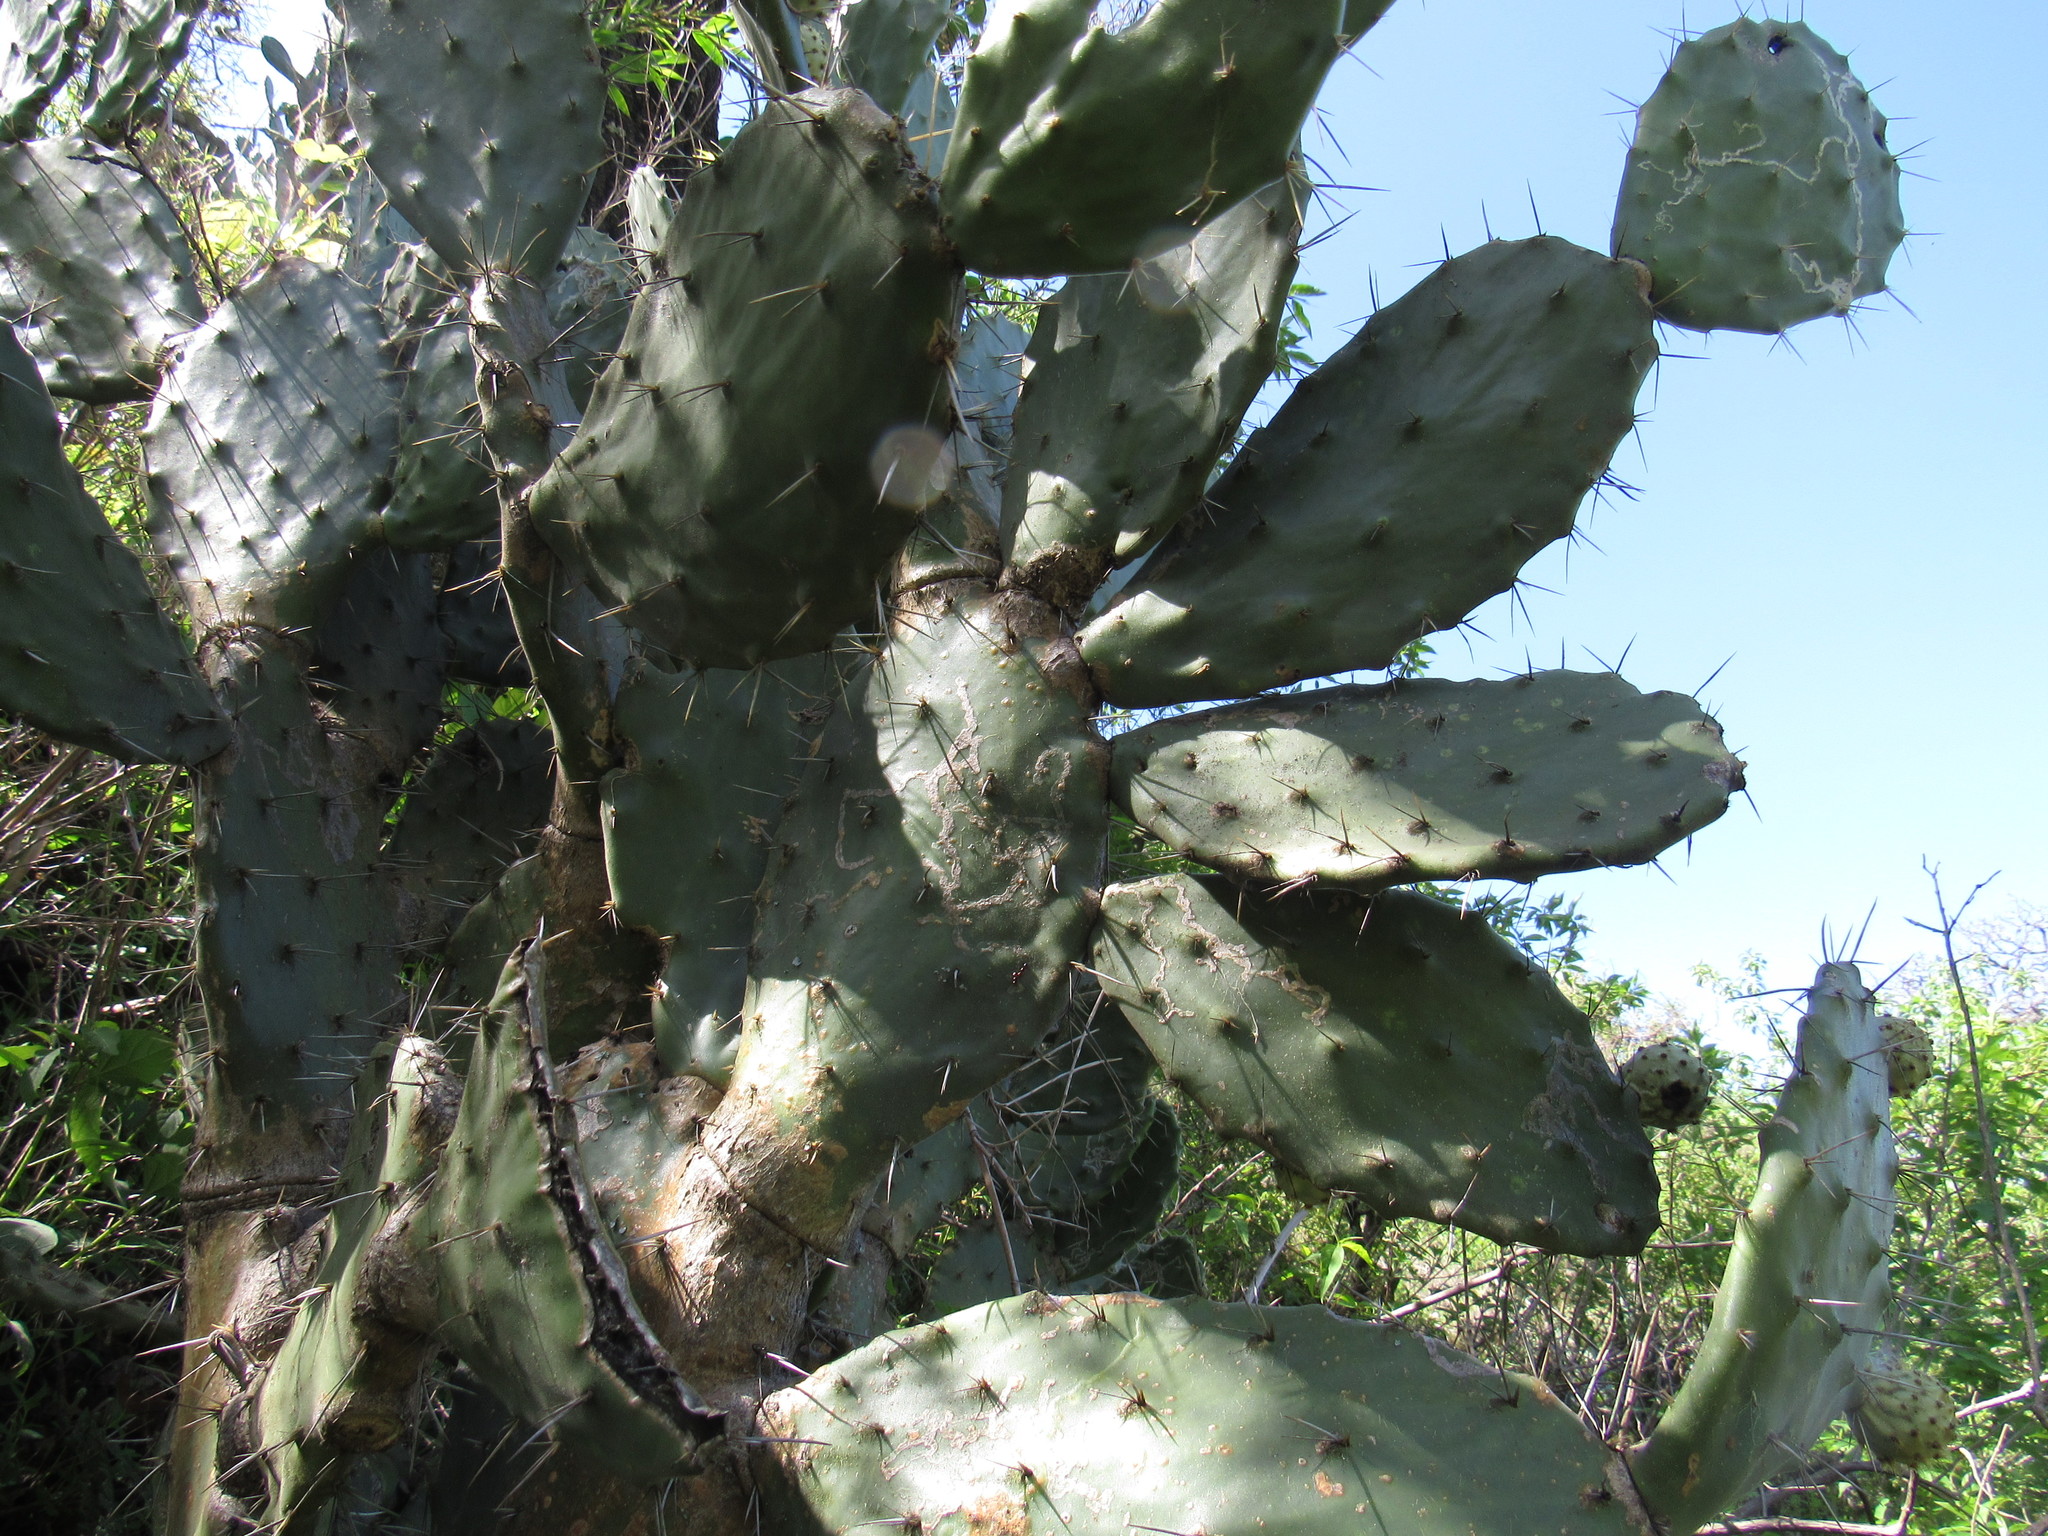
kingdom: Plantae
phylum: Tracheophyta
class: Magnoliopsida
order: Caryophyllales
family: Cactaceae
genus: Opuntia
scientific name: Opuntia tomentosa
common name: Woollyjoint pricklypear
